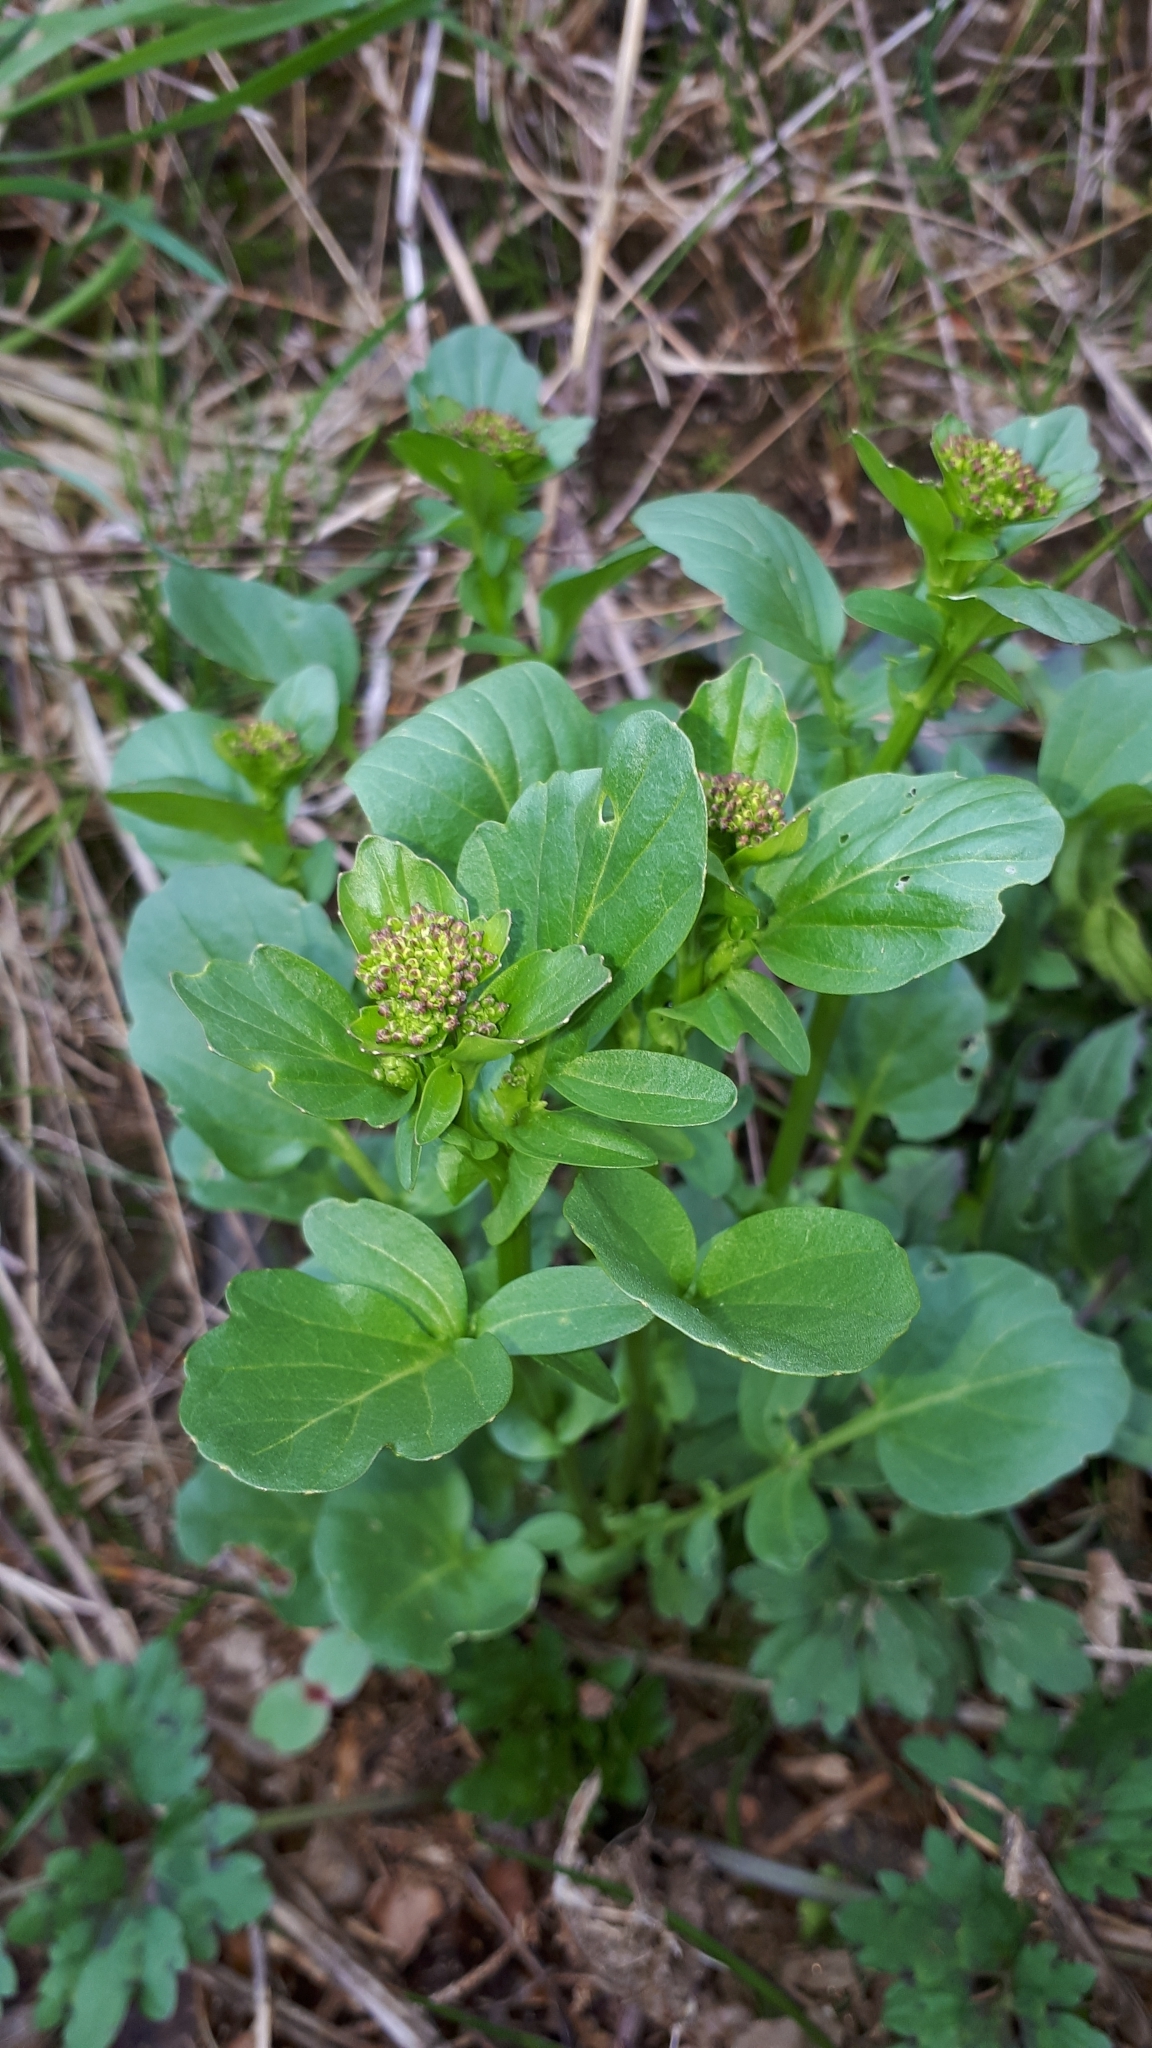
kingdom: Plantae
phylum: Tracheophyta
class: Magnoliopsida
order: Brassicales
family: Brassicaceae
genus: Barbarea
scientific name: Barbarea vulgaris
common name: Cressy-greens
